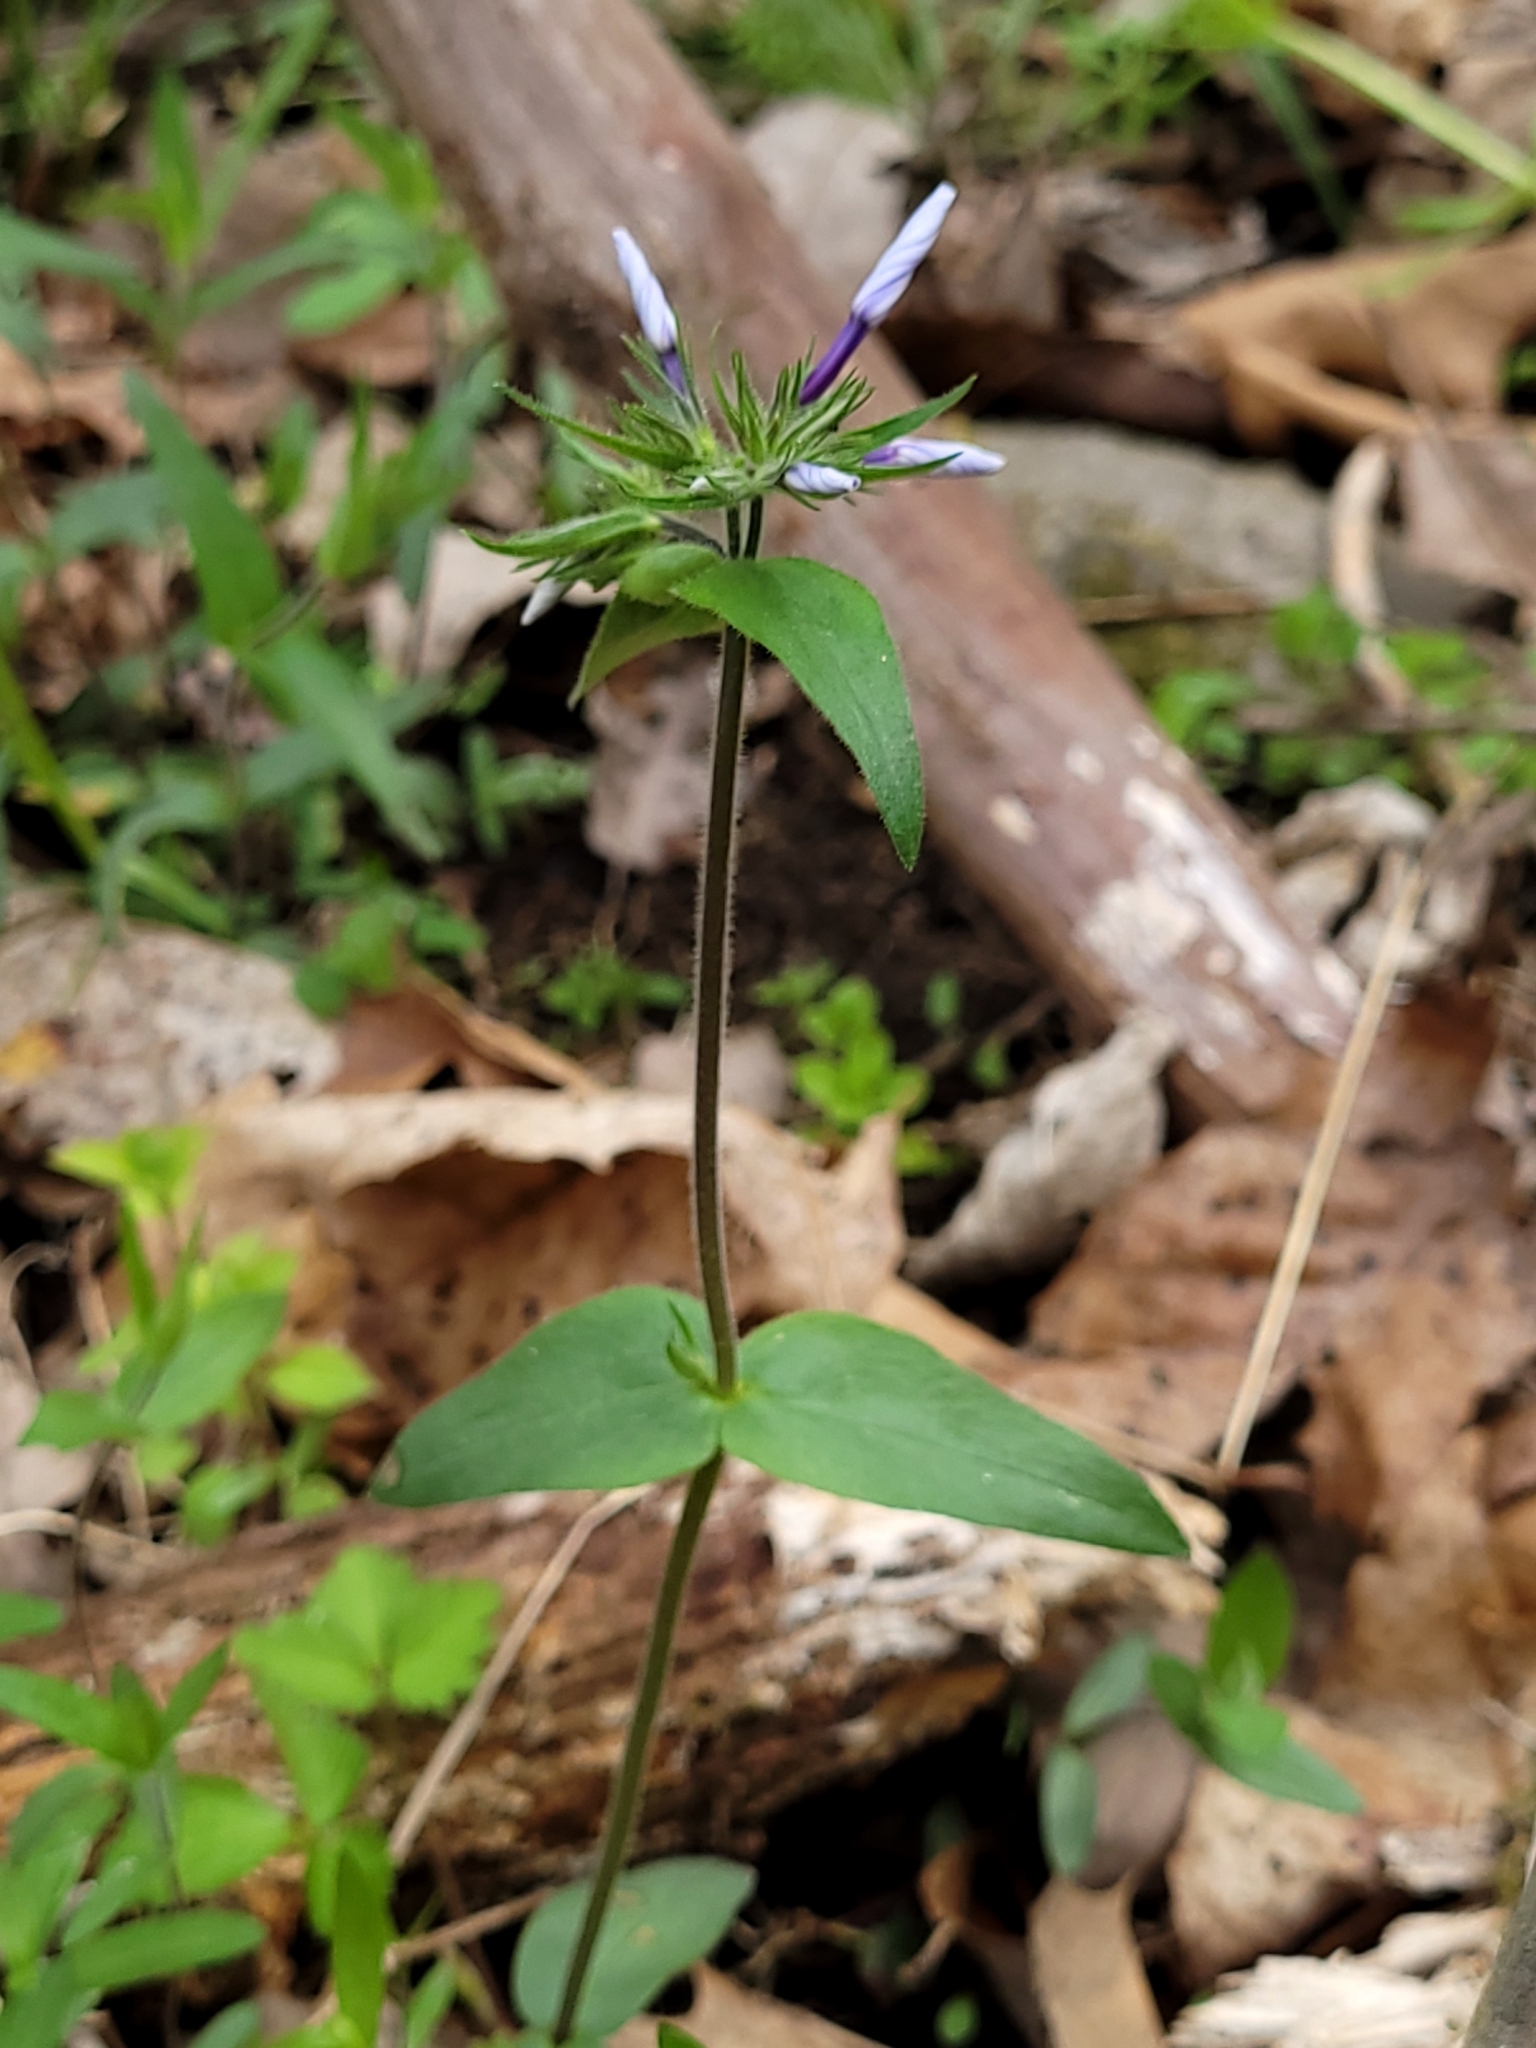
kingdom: Plantae
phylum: Tracheophyta
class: Magnoliopsida
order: Ericales
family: Polemoniaceae
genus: Phlox
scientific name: Phlox divaricata
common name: Blue phlox
